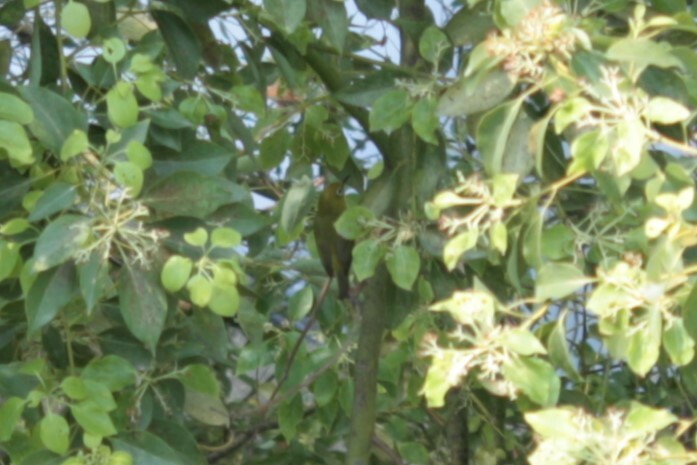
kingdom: Animalia
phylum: Chordata
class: Aves
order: Passeriformes
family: Zosteropidae
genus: Zosterops
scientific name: Zosterops simplex
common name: Swinhoe's white-eye
